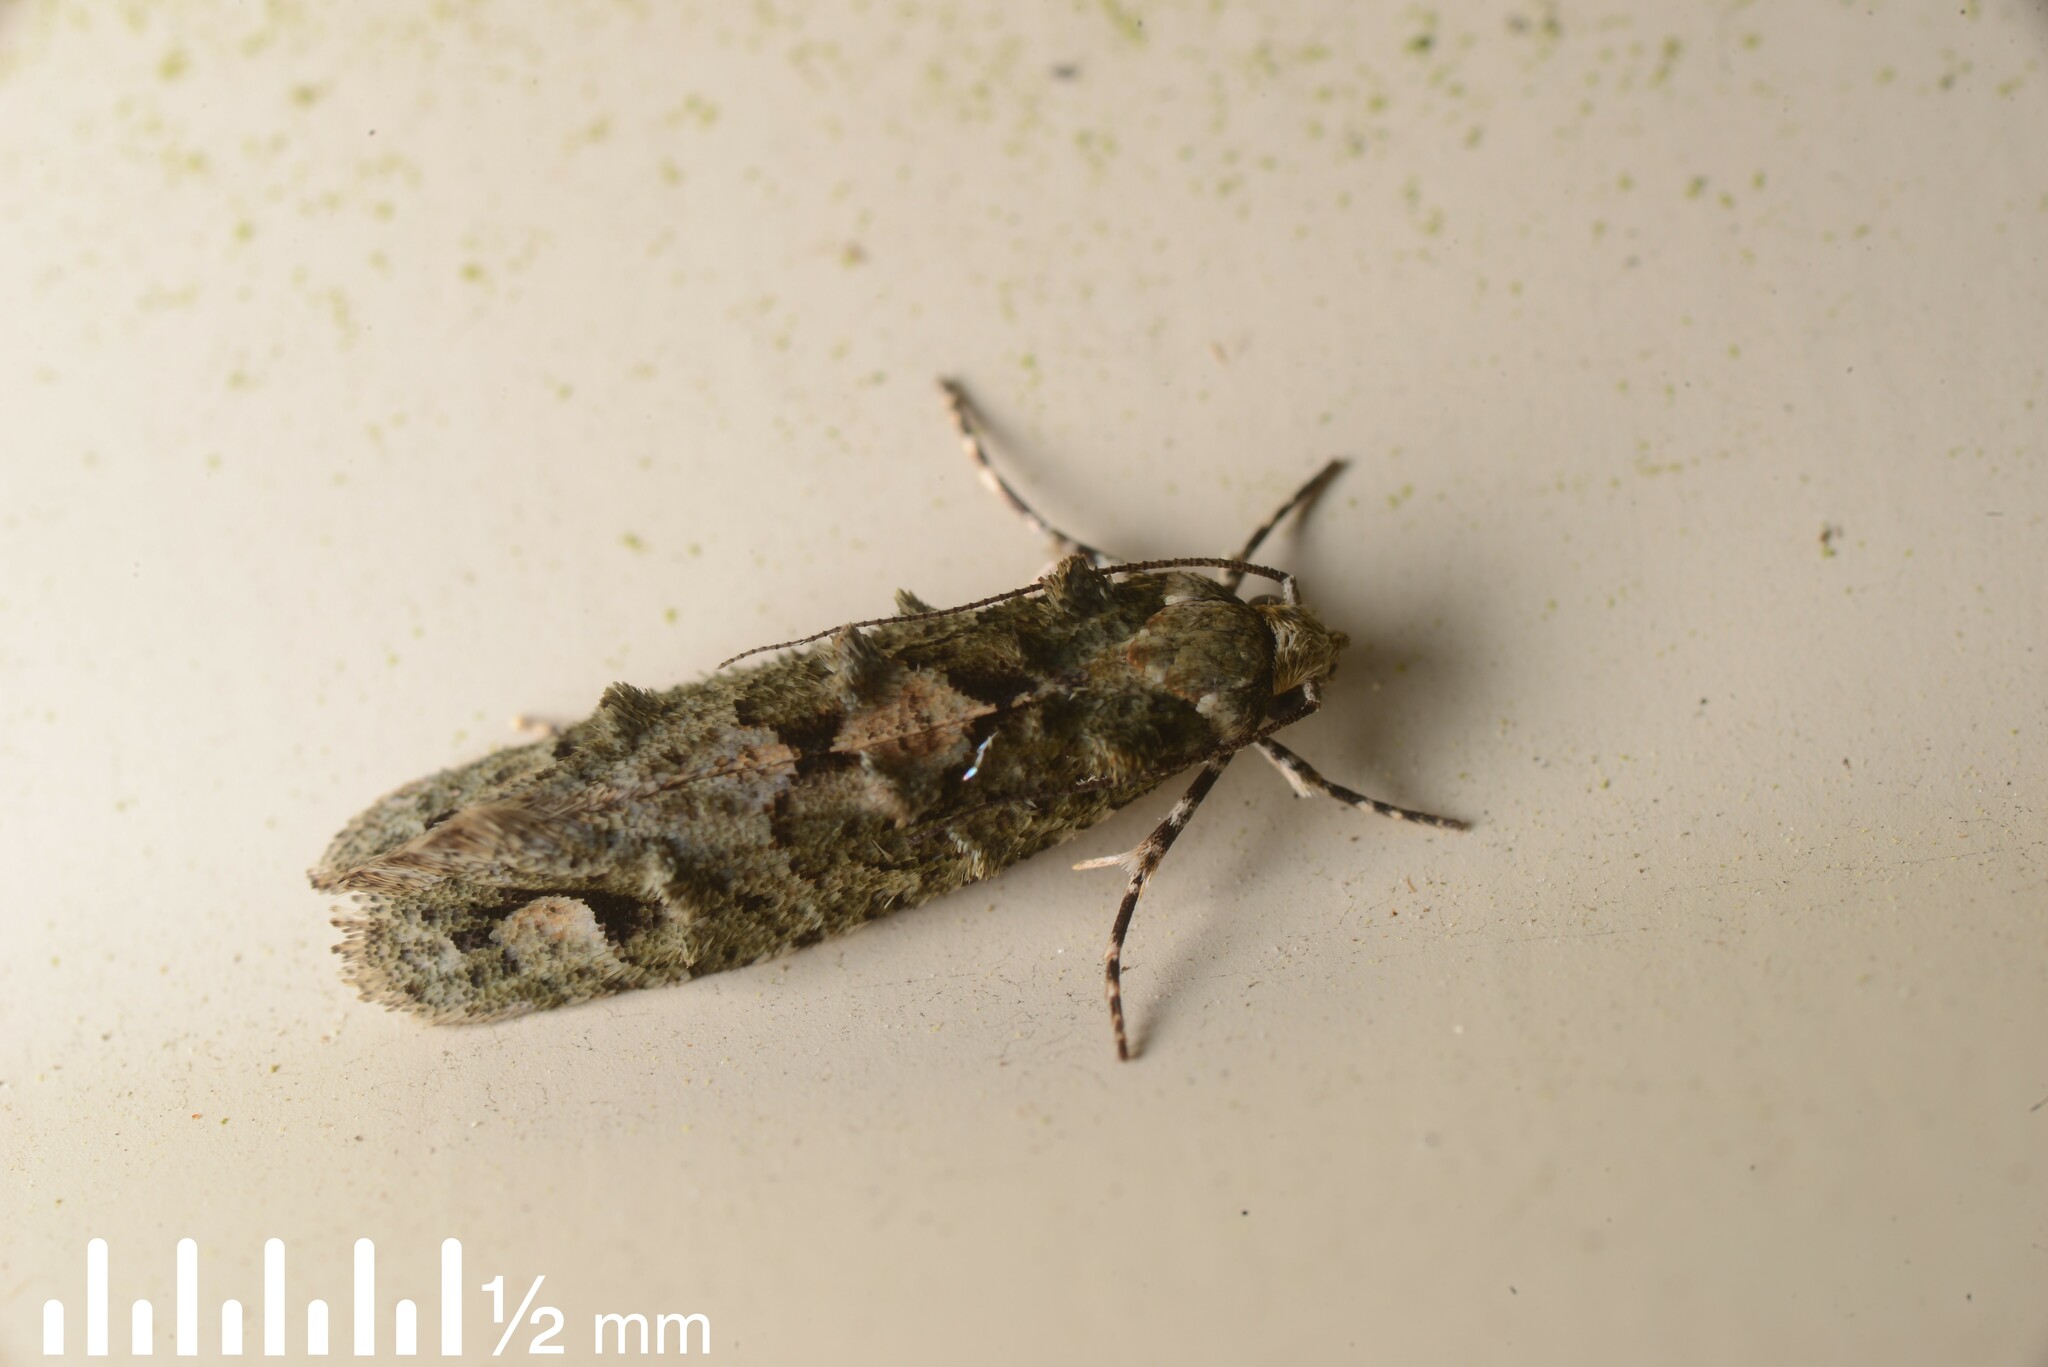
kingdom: Animalia
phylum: Arthropoda
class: Insecta
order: Lepidoptera
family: Tineidae
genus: Lysiphragma
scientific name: Lysiphragma howesii
